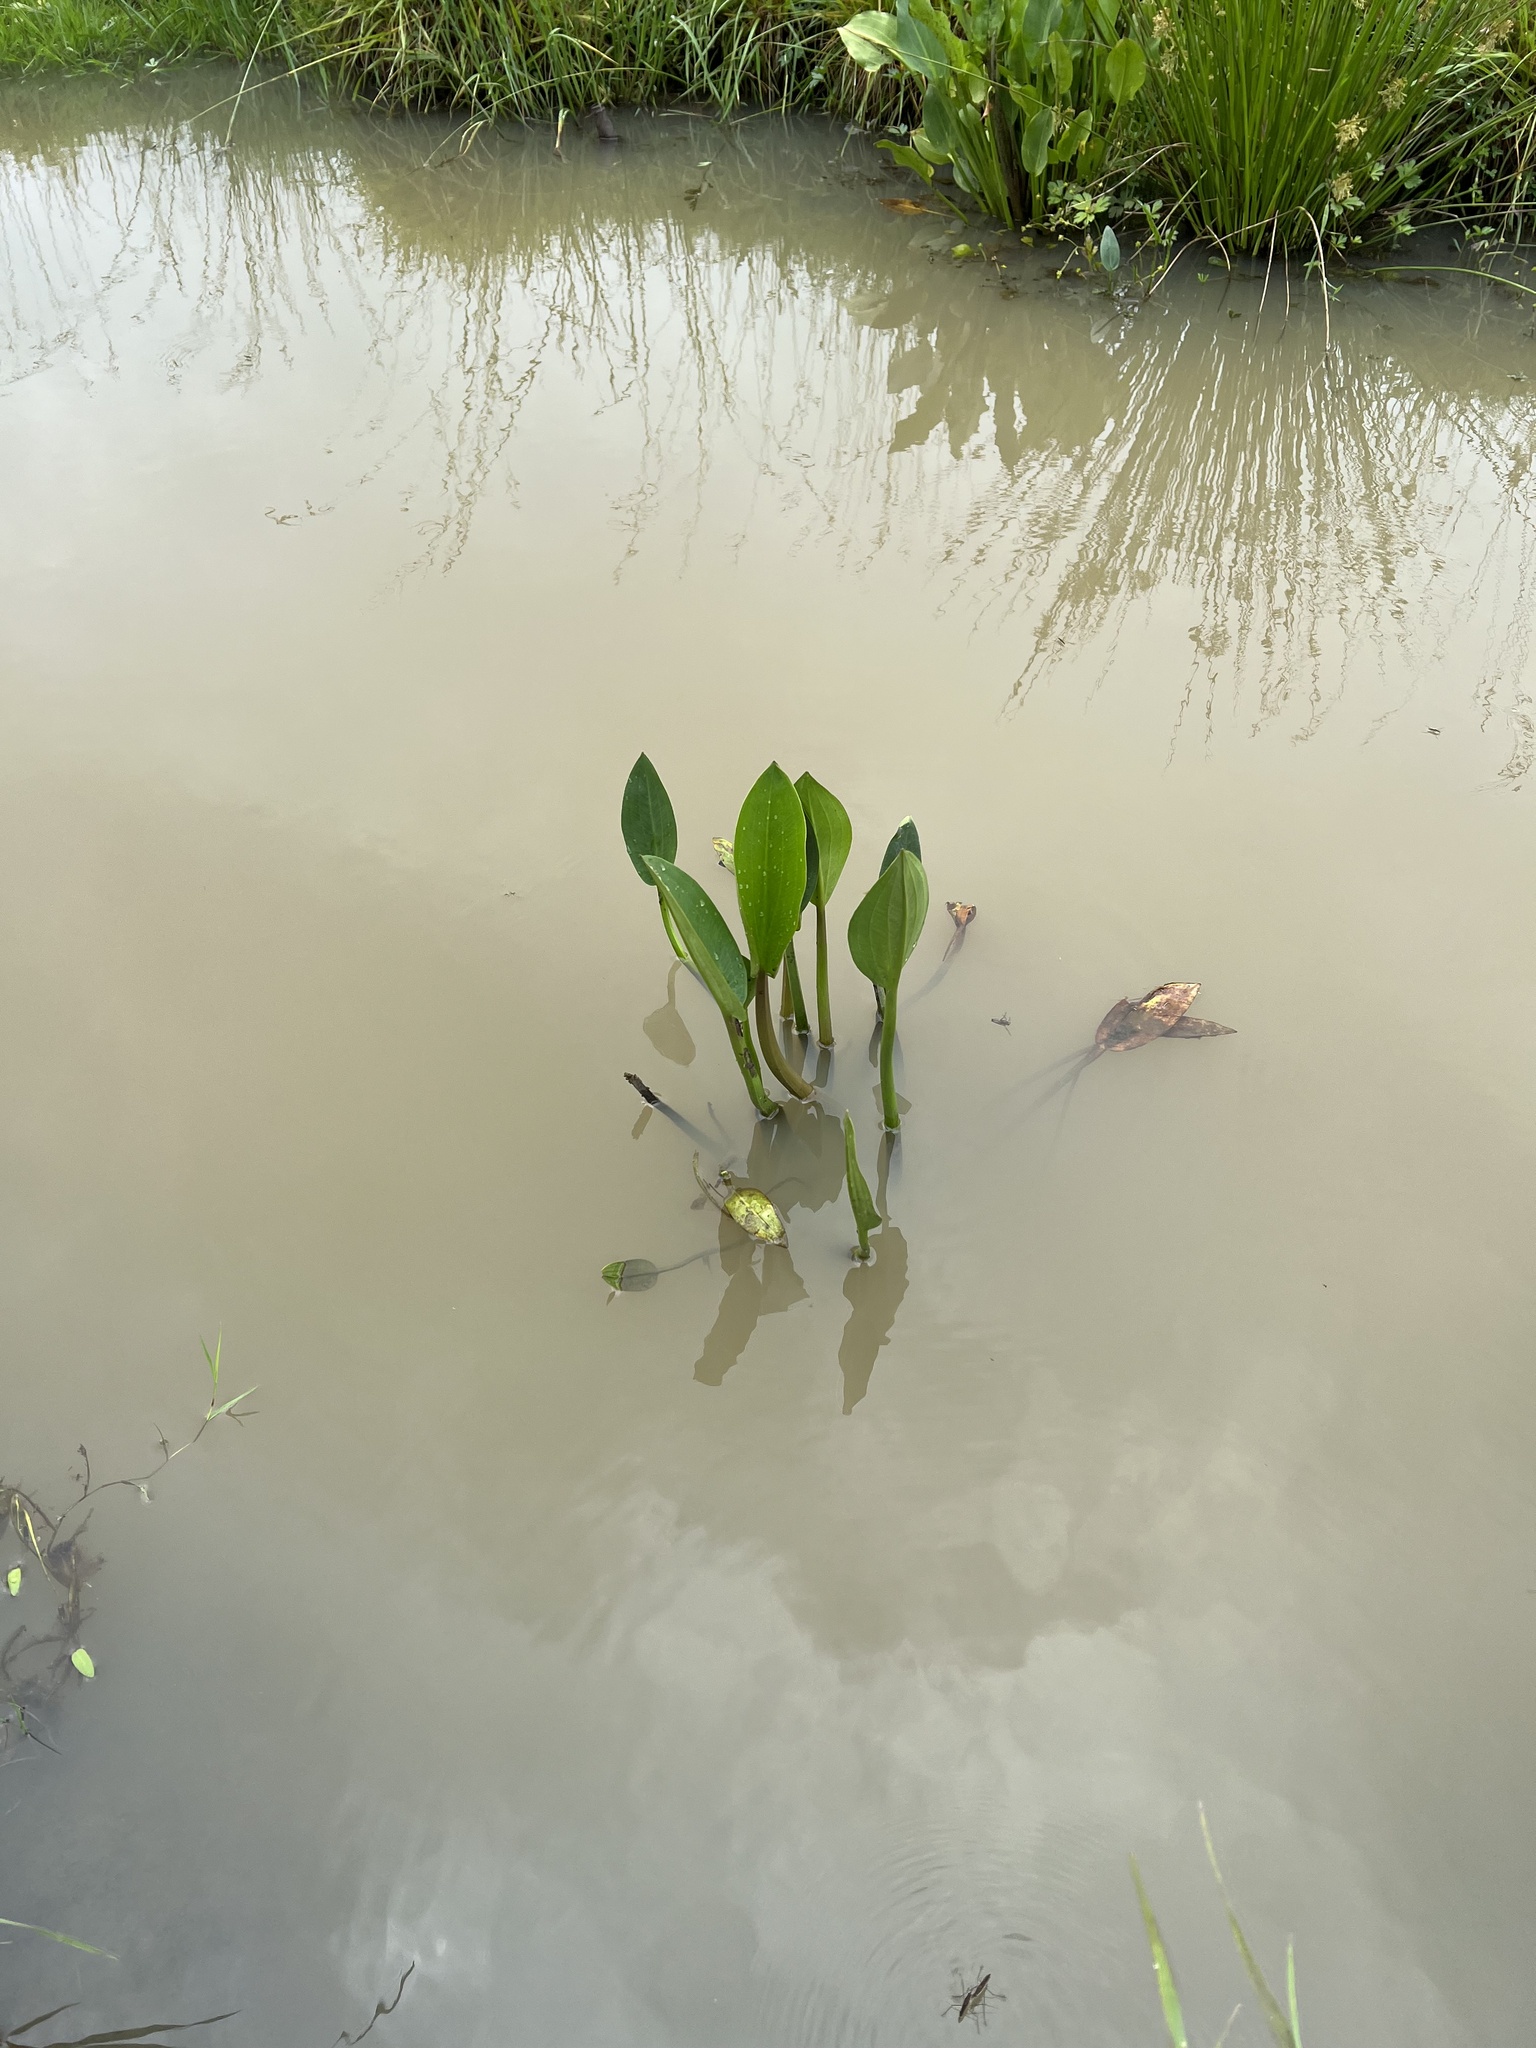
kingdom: Plantae
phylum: Tracheophyta
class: Liliopsida
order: Alismatales
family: Alismataceae
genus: Alisma
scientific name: Alisma plantago-aquatica
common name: Water-plantain
